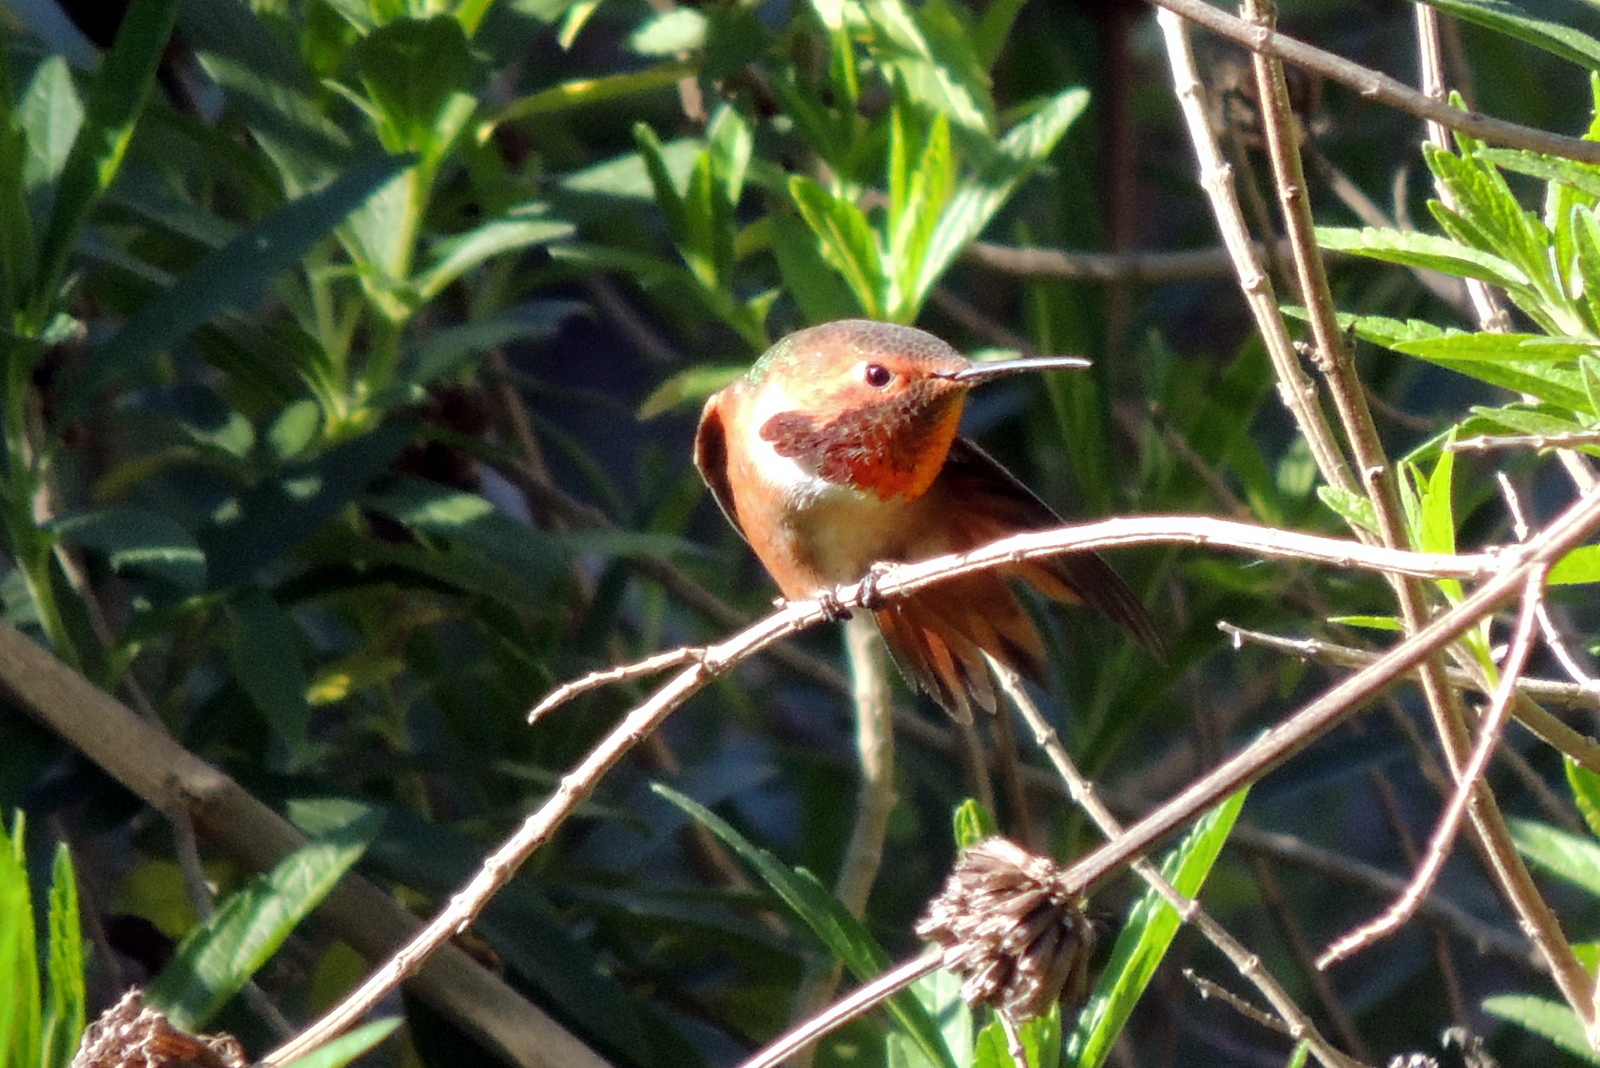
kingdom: Animalia
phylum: Chordata
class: Aves
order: Apodiformes
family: Trochilidae
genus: Selasphorus
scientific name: Selasphorus sasin
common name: Allen's hummingbird
